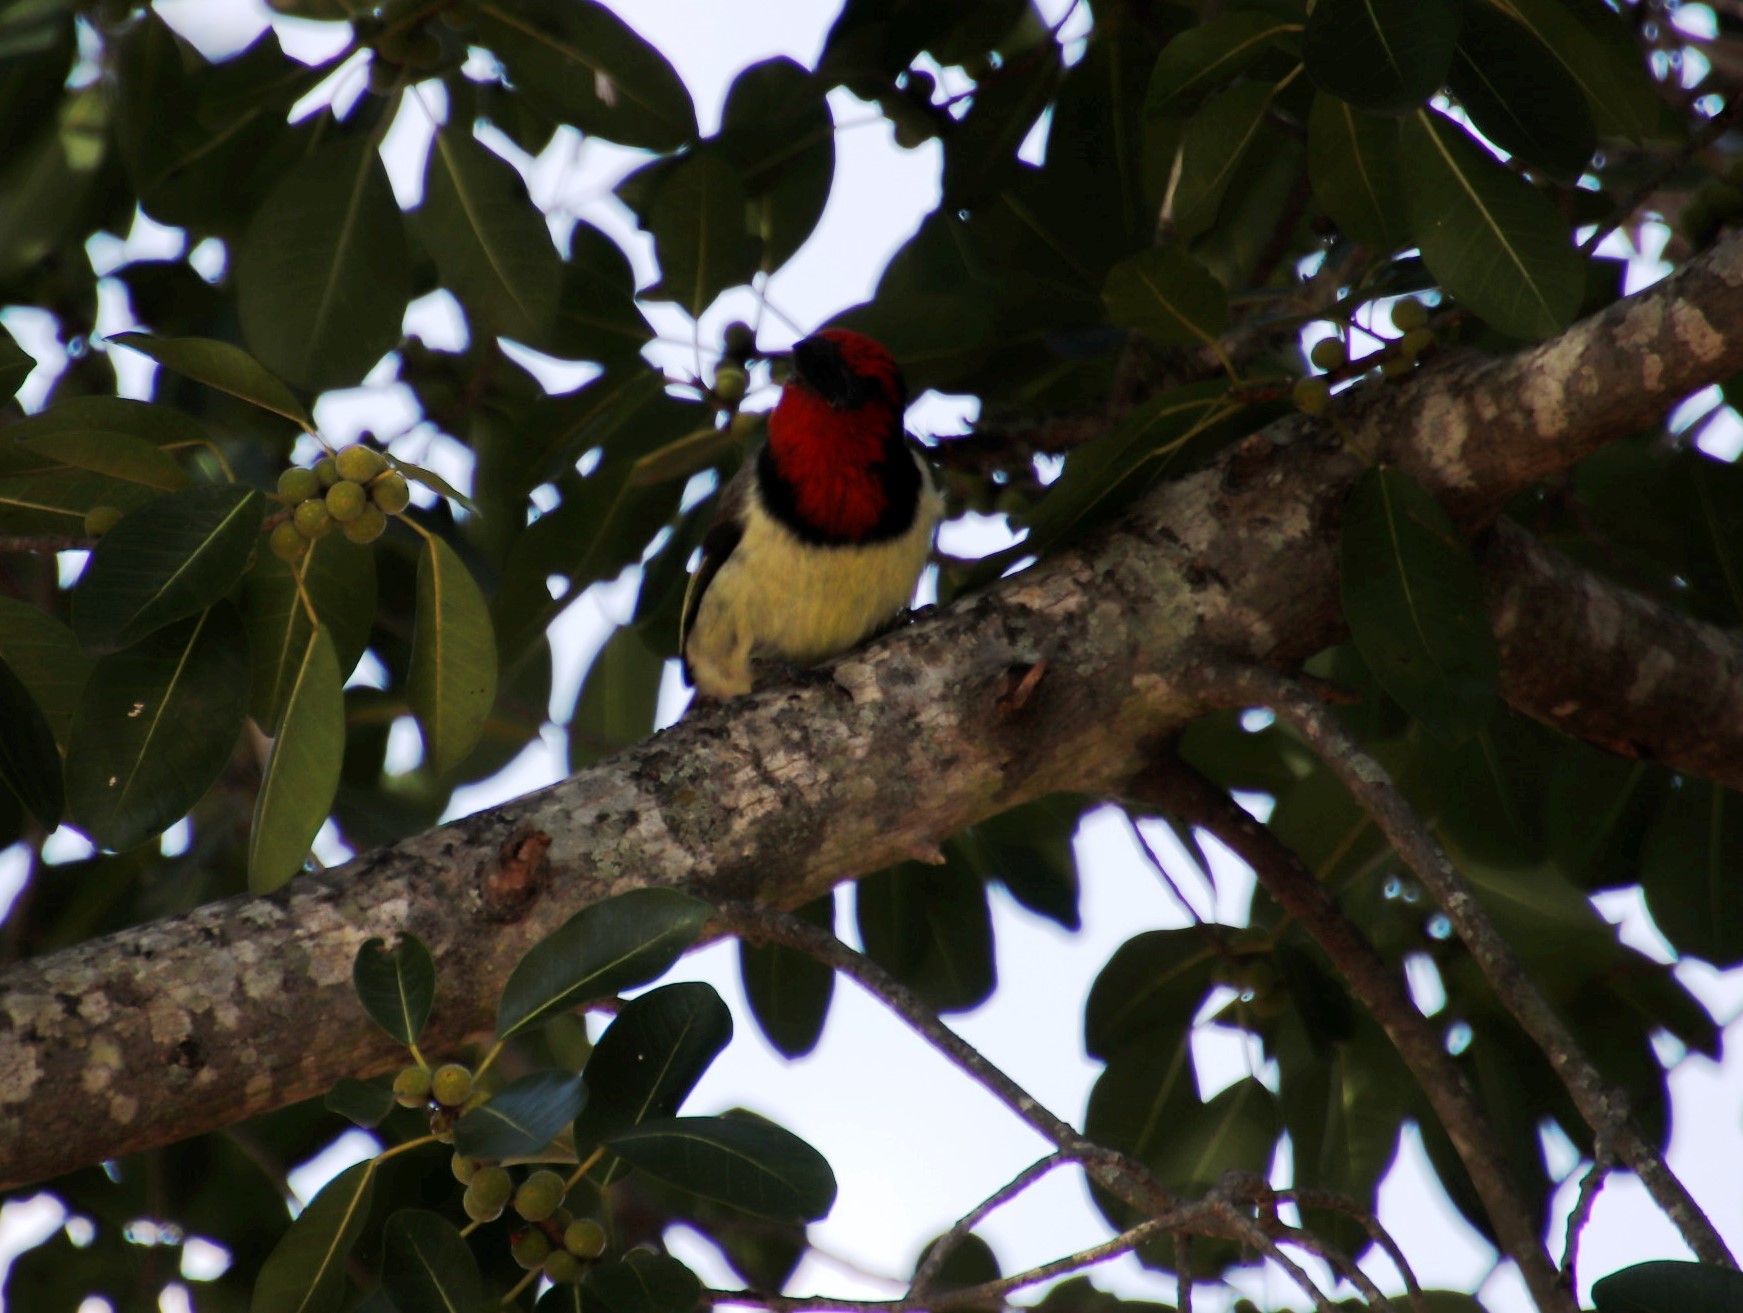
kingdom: Animalia
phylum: Chordata
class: Aves
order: Piciformes
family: Lybiidae
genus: Lybius
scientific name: Lybius torquatus
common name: Black-collared barbet
